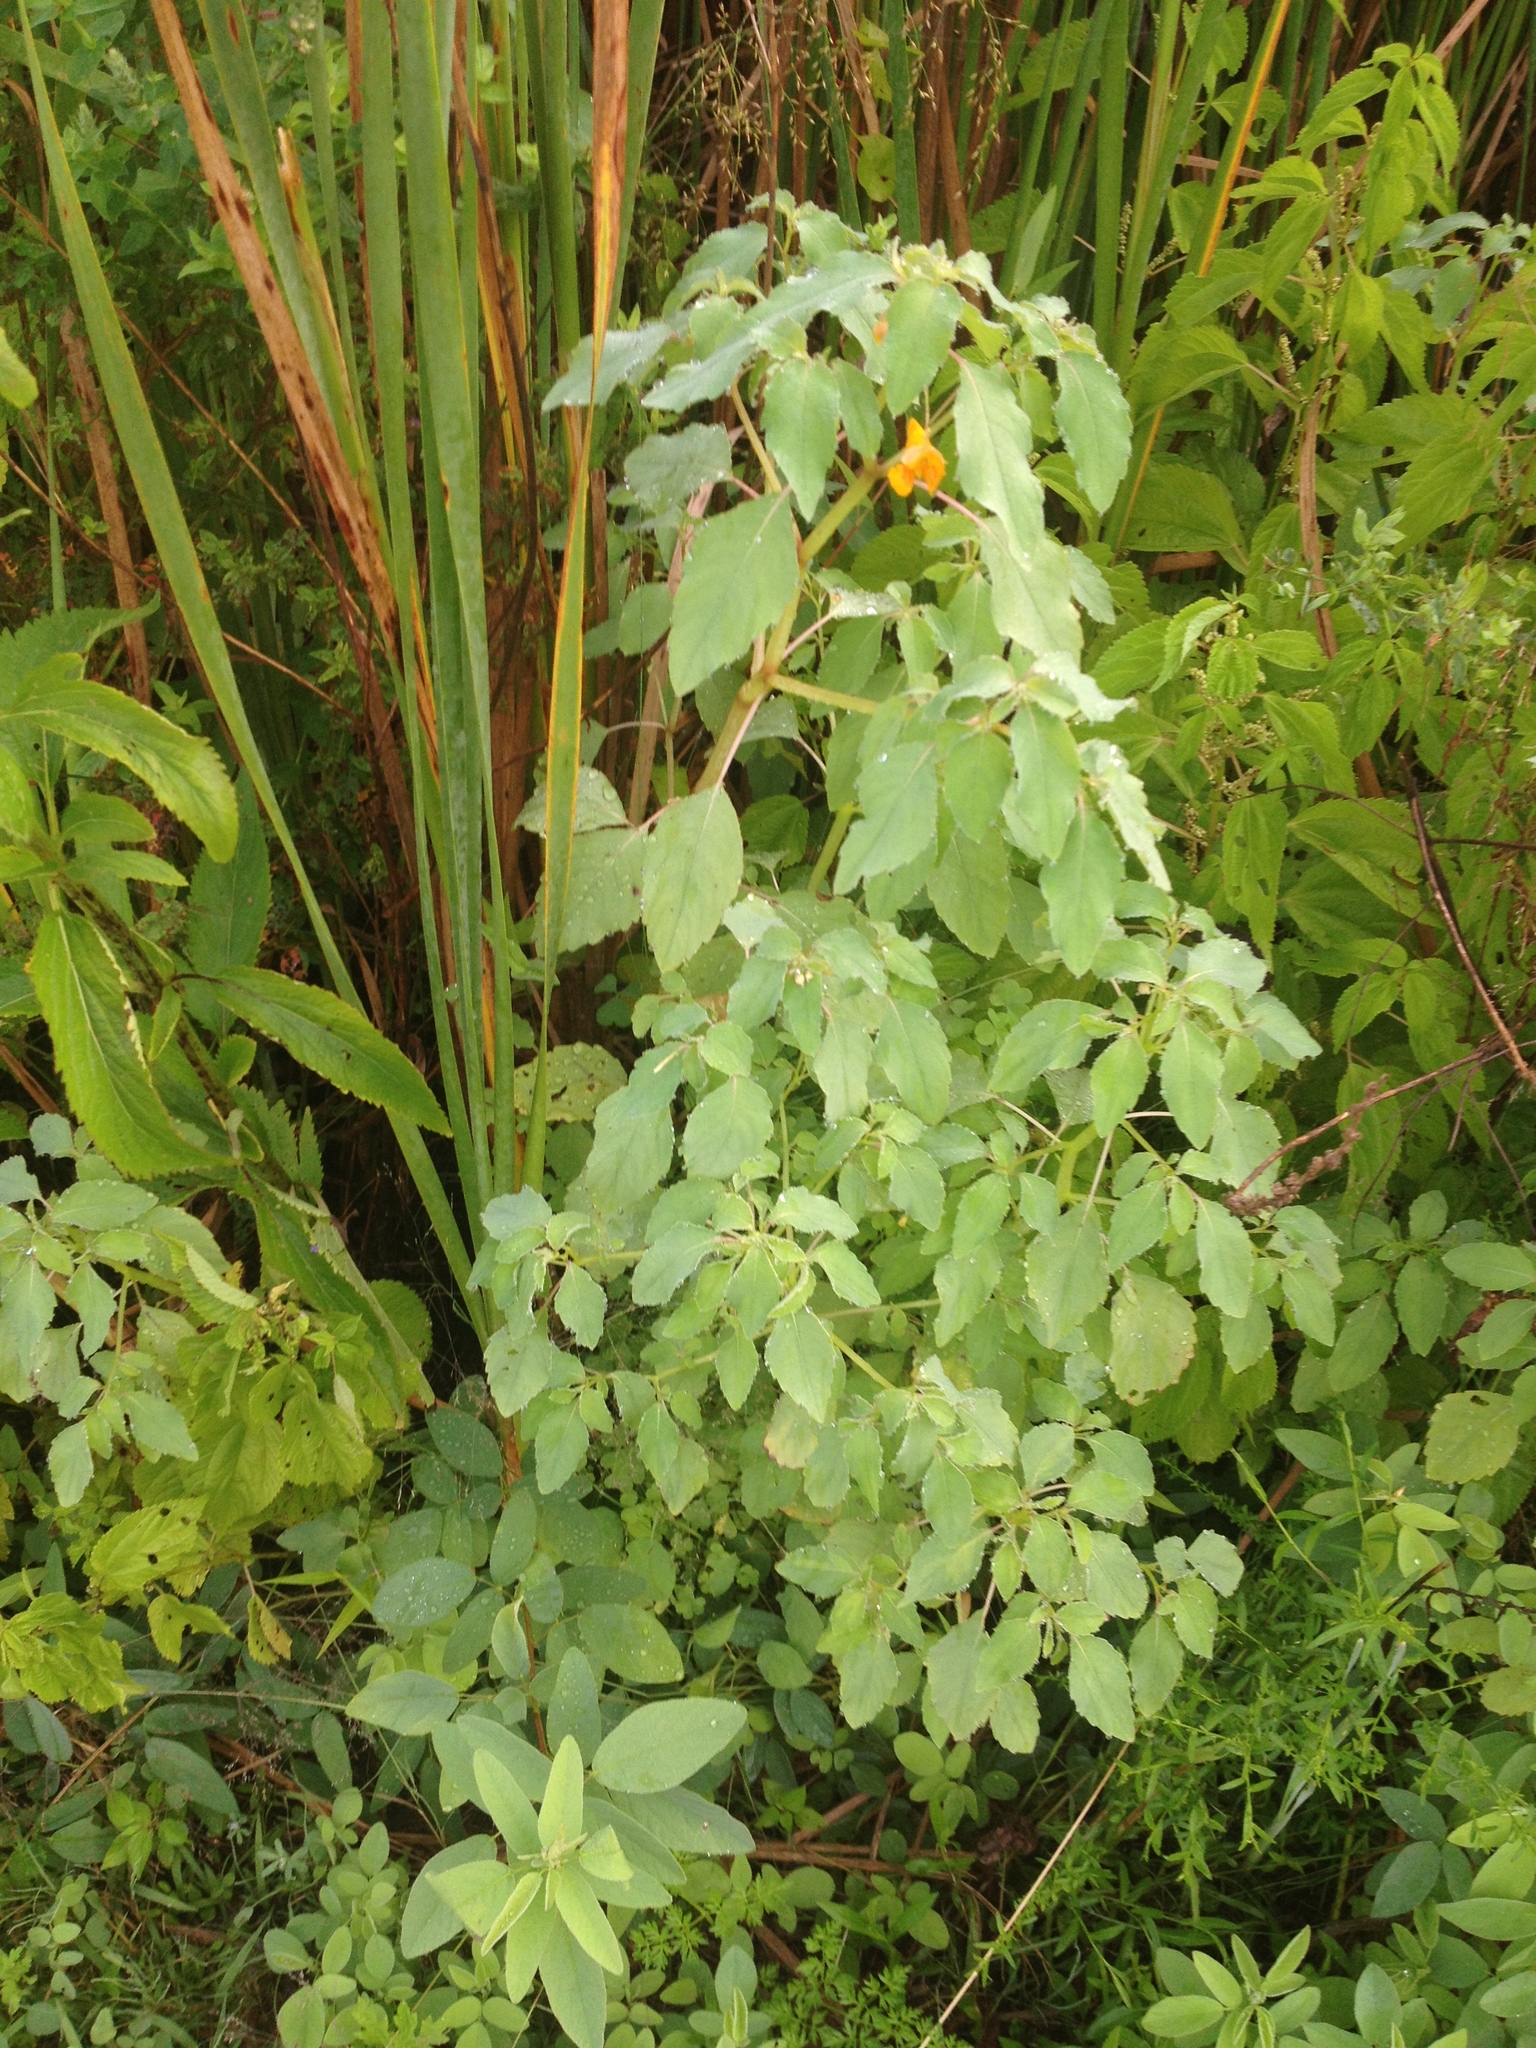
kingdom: Plantae
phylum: Tracheophyta
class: Magnoliopsida
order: Ericales
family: Balsaminaceae
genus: Impatiens
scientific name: Impatiens capensis
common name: Orange balsam
